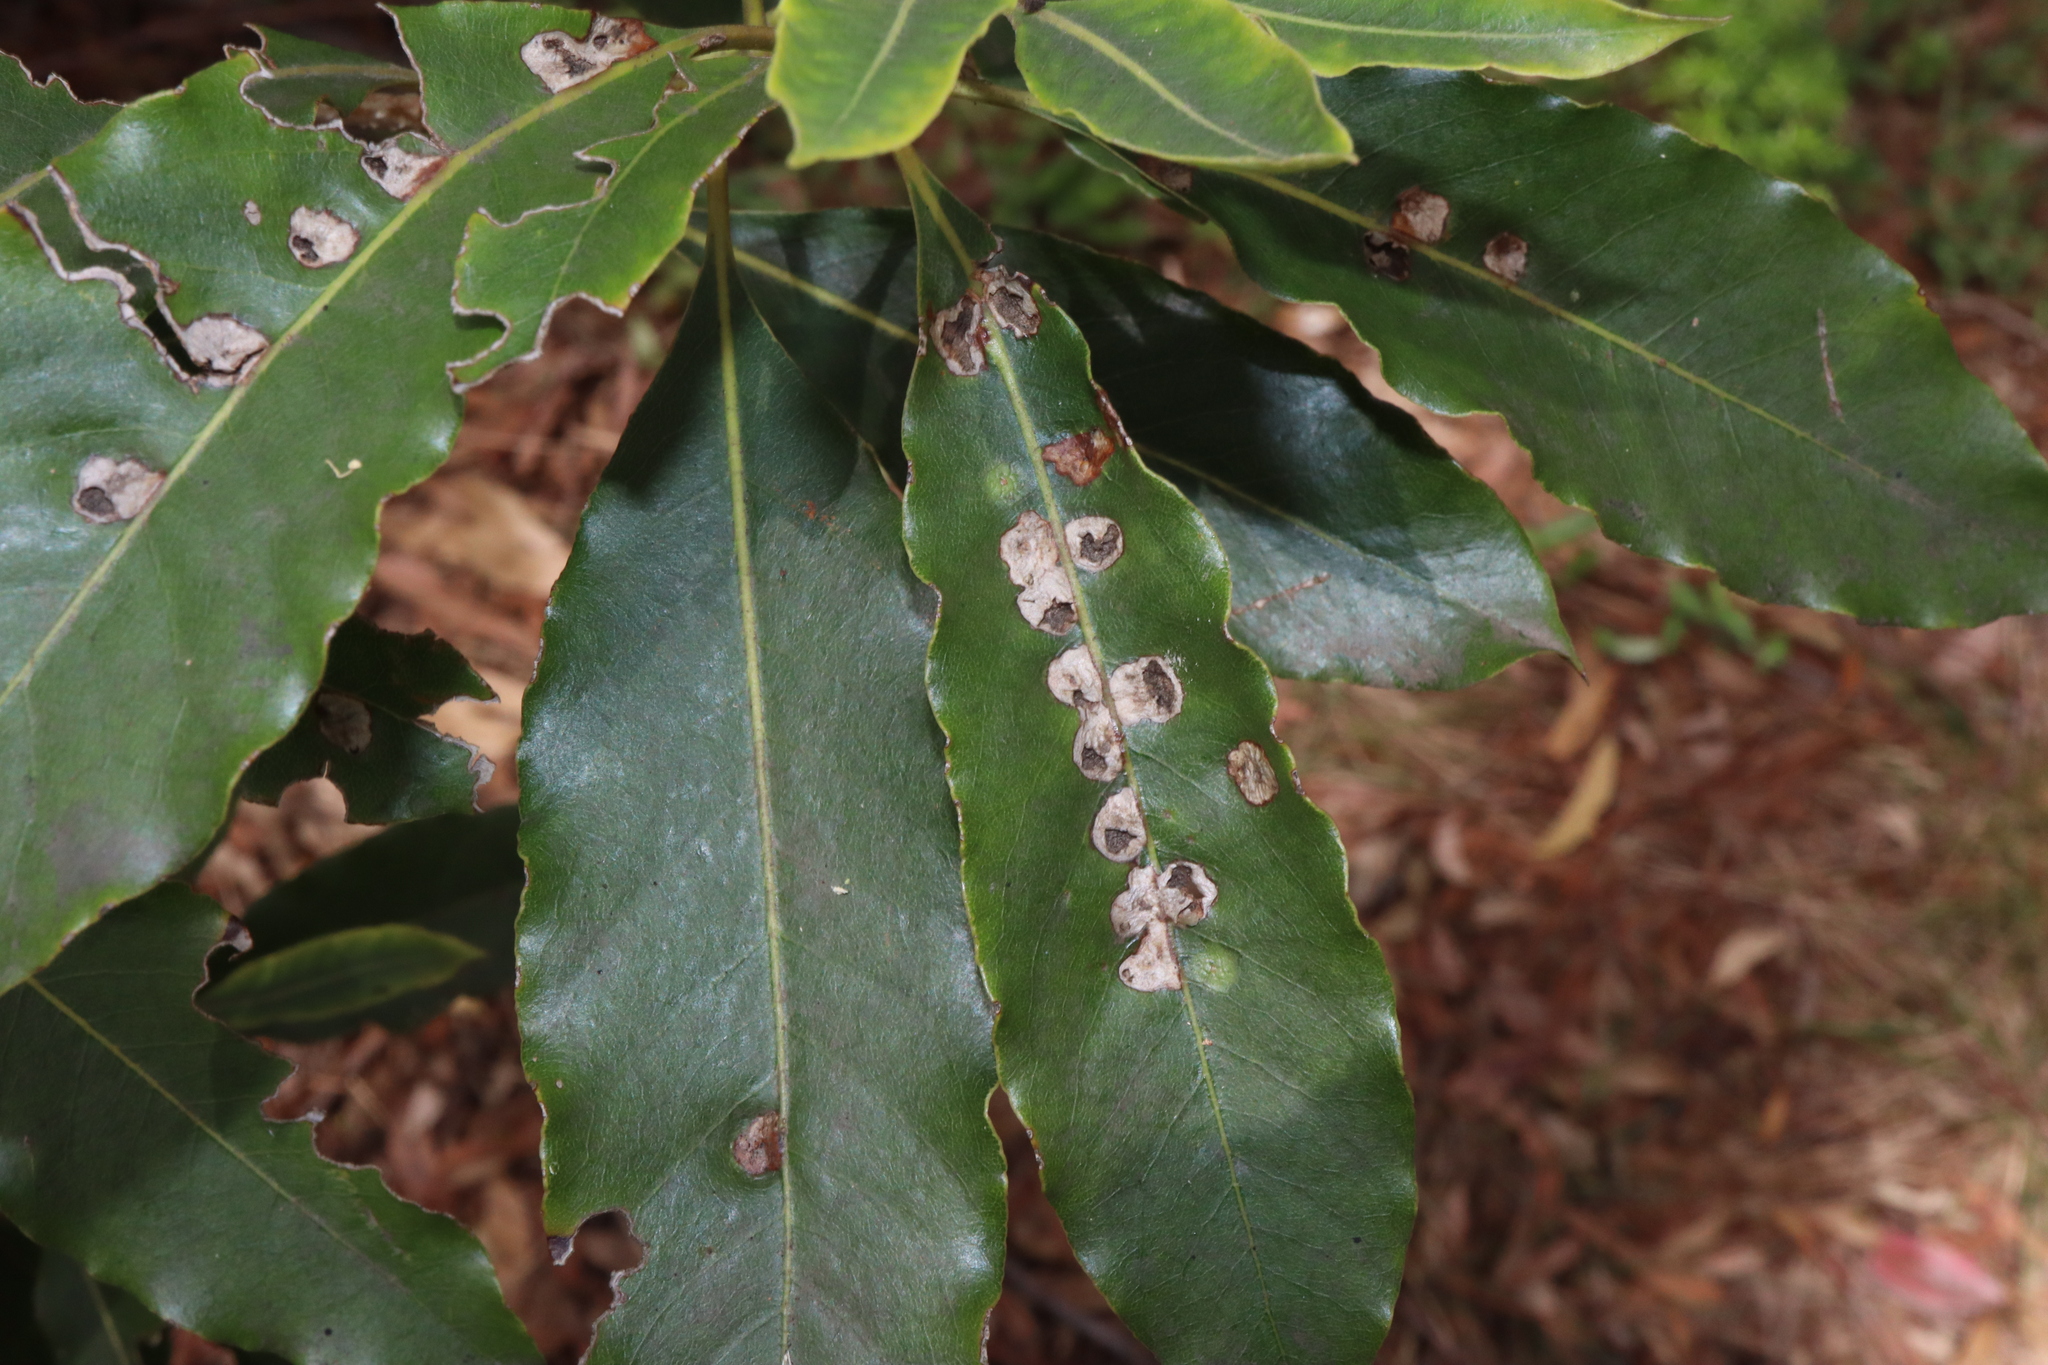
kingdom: Animalia
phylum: Arthropoda
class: Insecta
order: Diptera
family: Agromyzidae
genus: Phytoliriomyza
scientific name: Phytoliriomyza pittosporophylli
